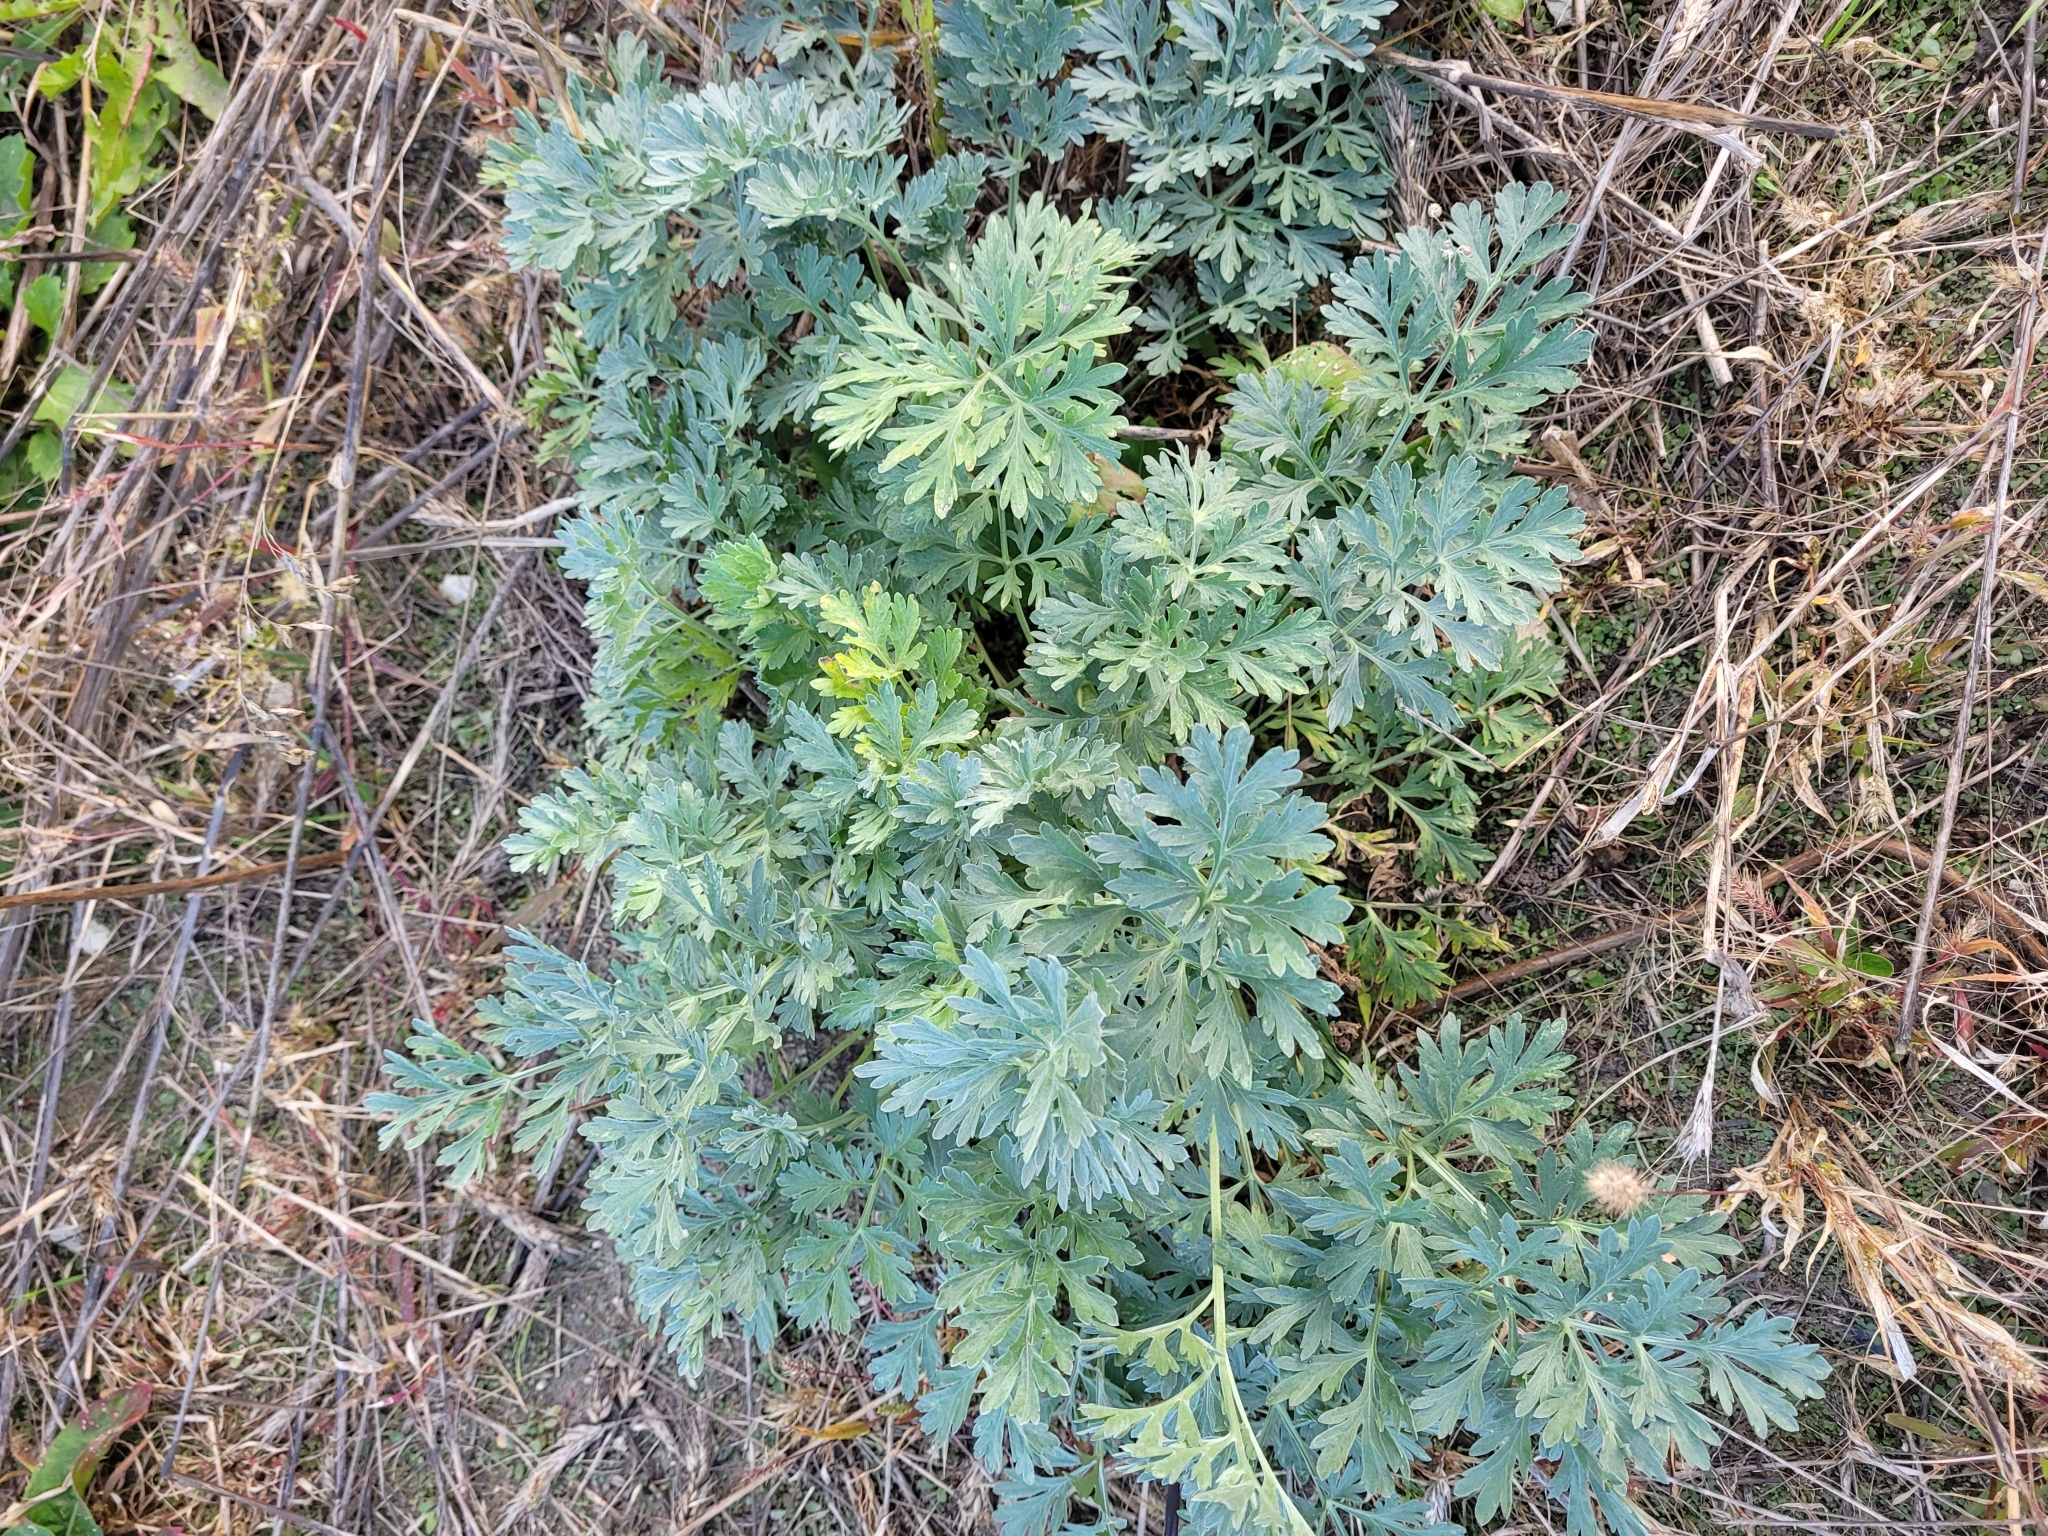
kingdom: Plantae
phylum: Tracheophyta
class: Magnoliopsida
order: Asterales
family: Asteraceae
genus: Artemisia
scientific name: Artemisia absinthium
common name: Wormwood
